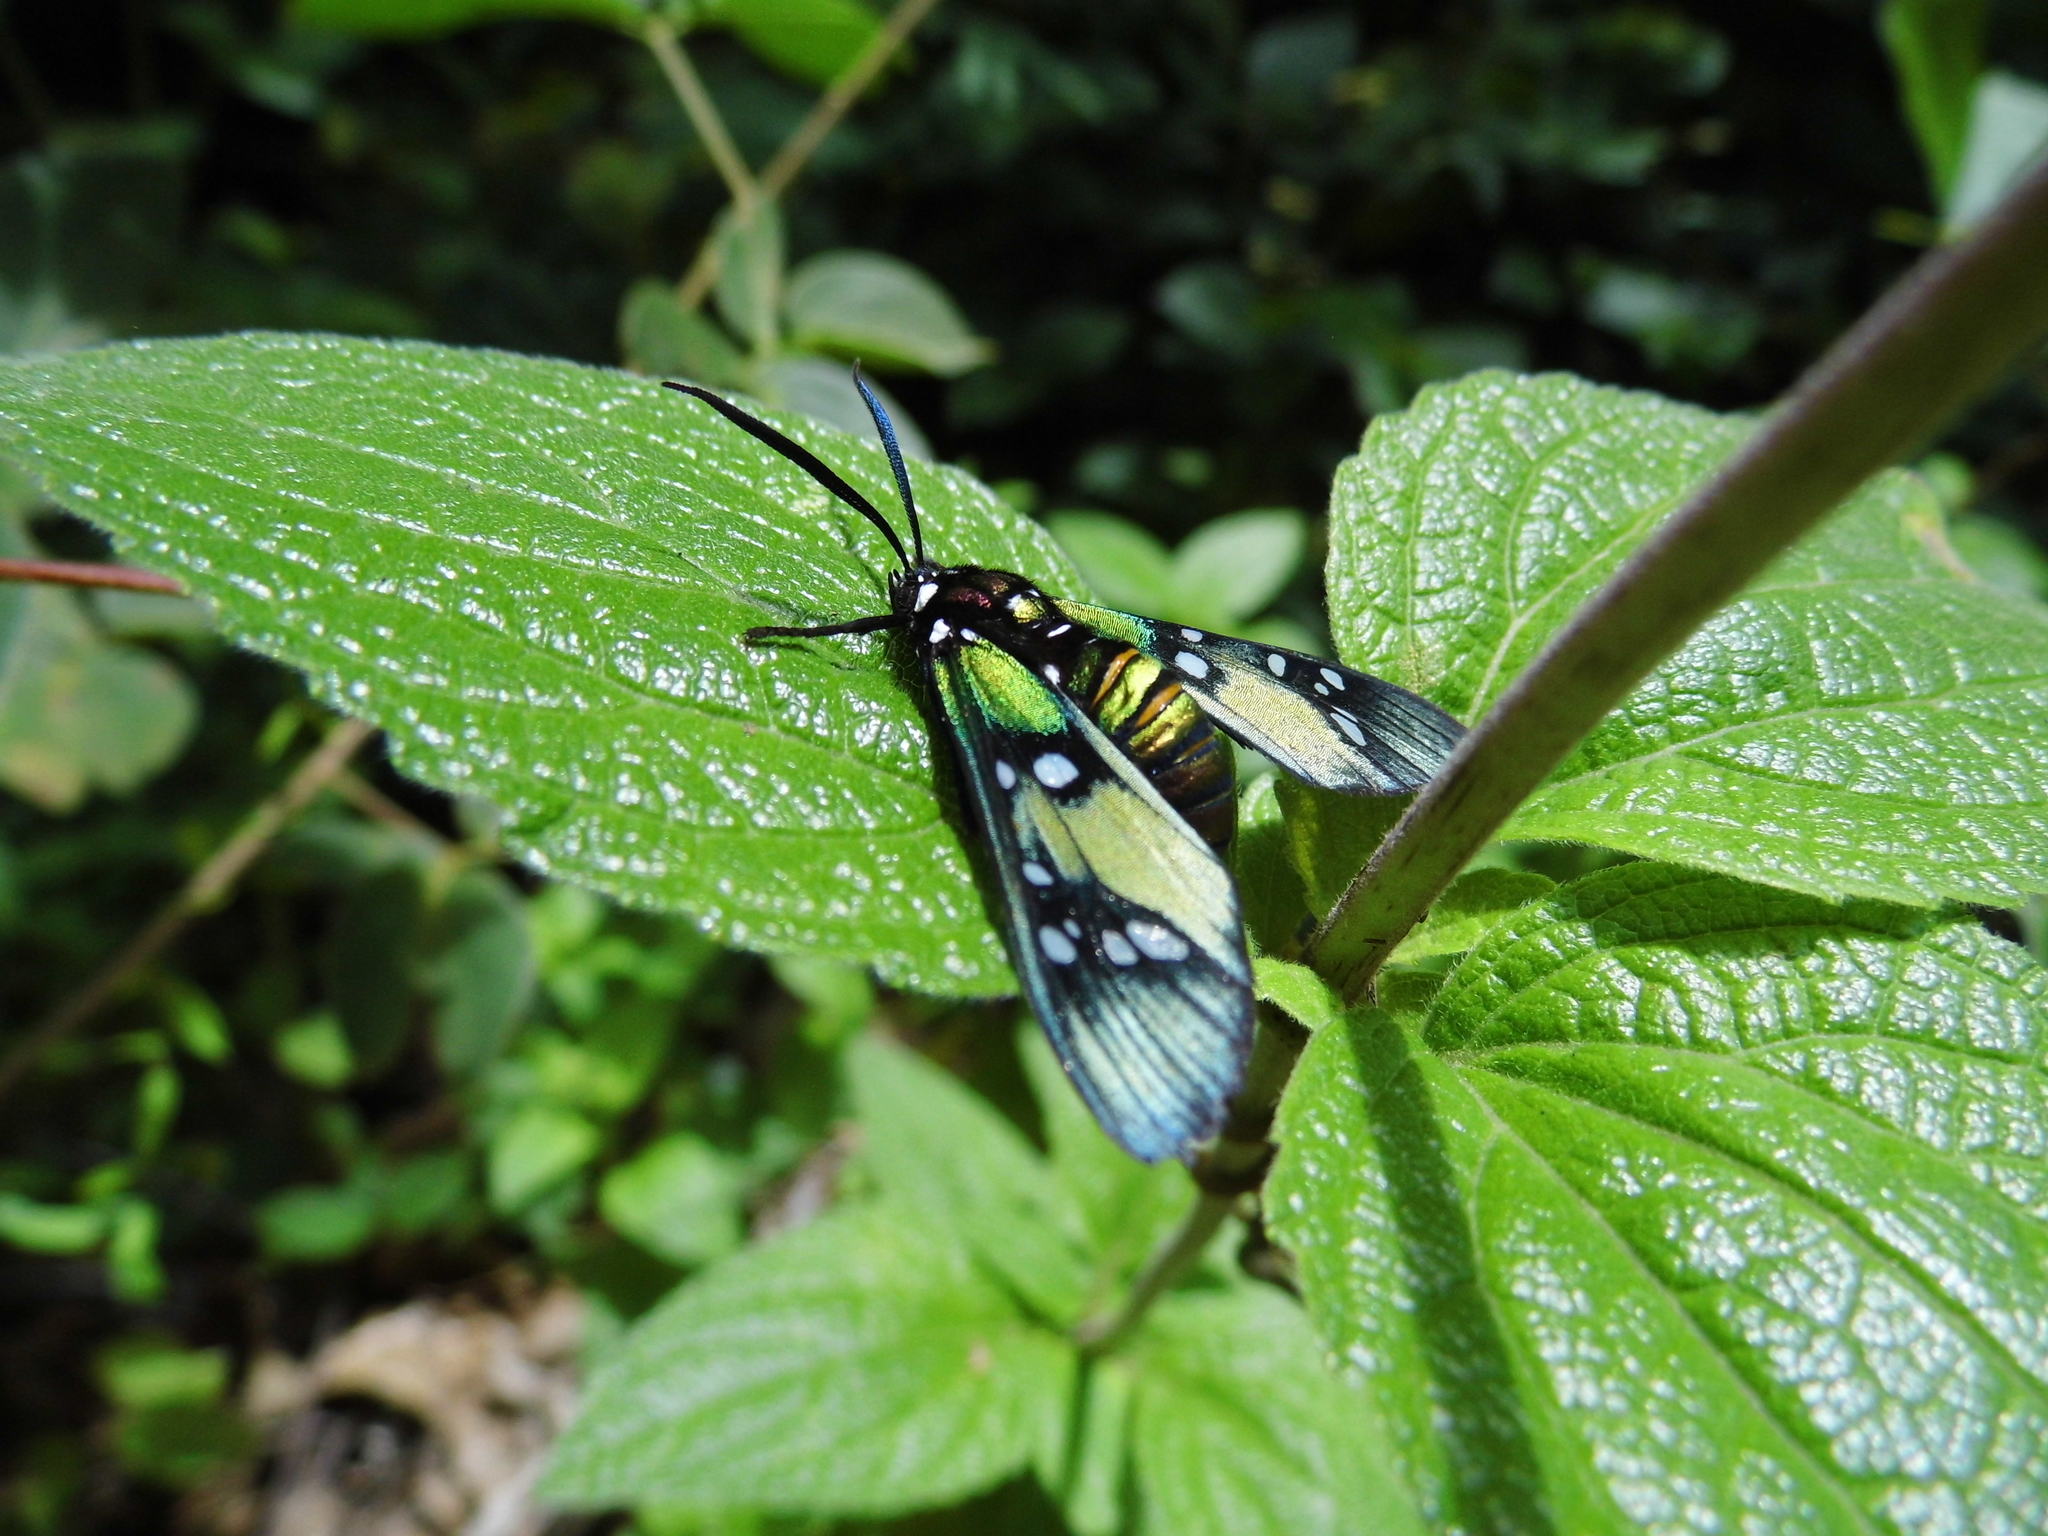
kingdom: Animalia
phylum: Arthropoda
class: Insecta
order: Lepidoptera
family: Erebidae
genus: Chrysocale
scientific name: Chrysocale principalis
